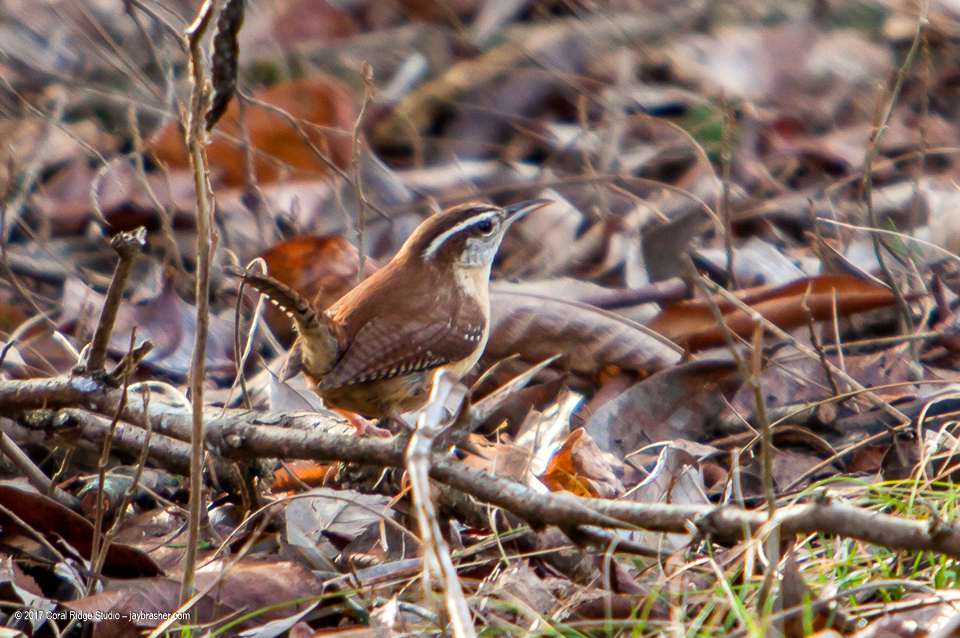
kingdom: Animalia
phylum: Chordata
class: Aves
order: Passeriformes
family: Troglodytidae
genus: Thryothorus
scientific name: Thryothorus ludovicianus
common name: Carolina wren
